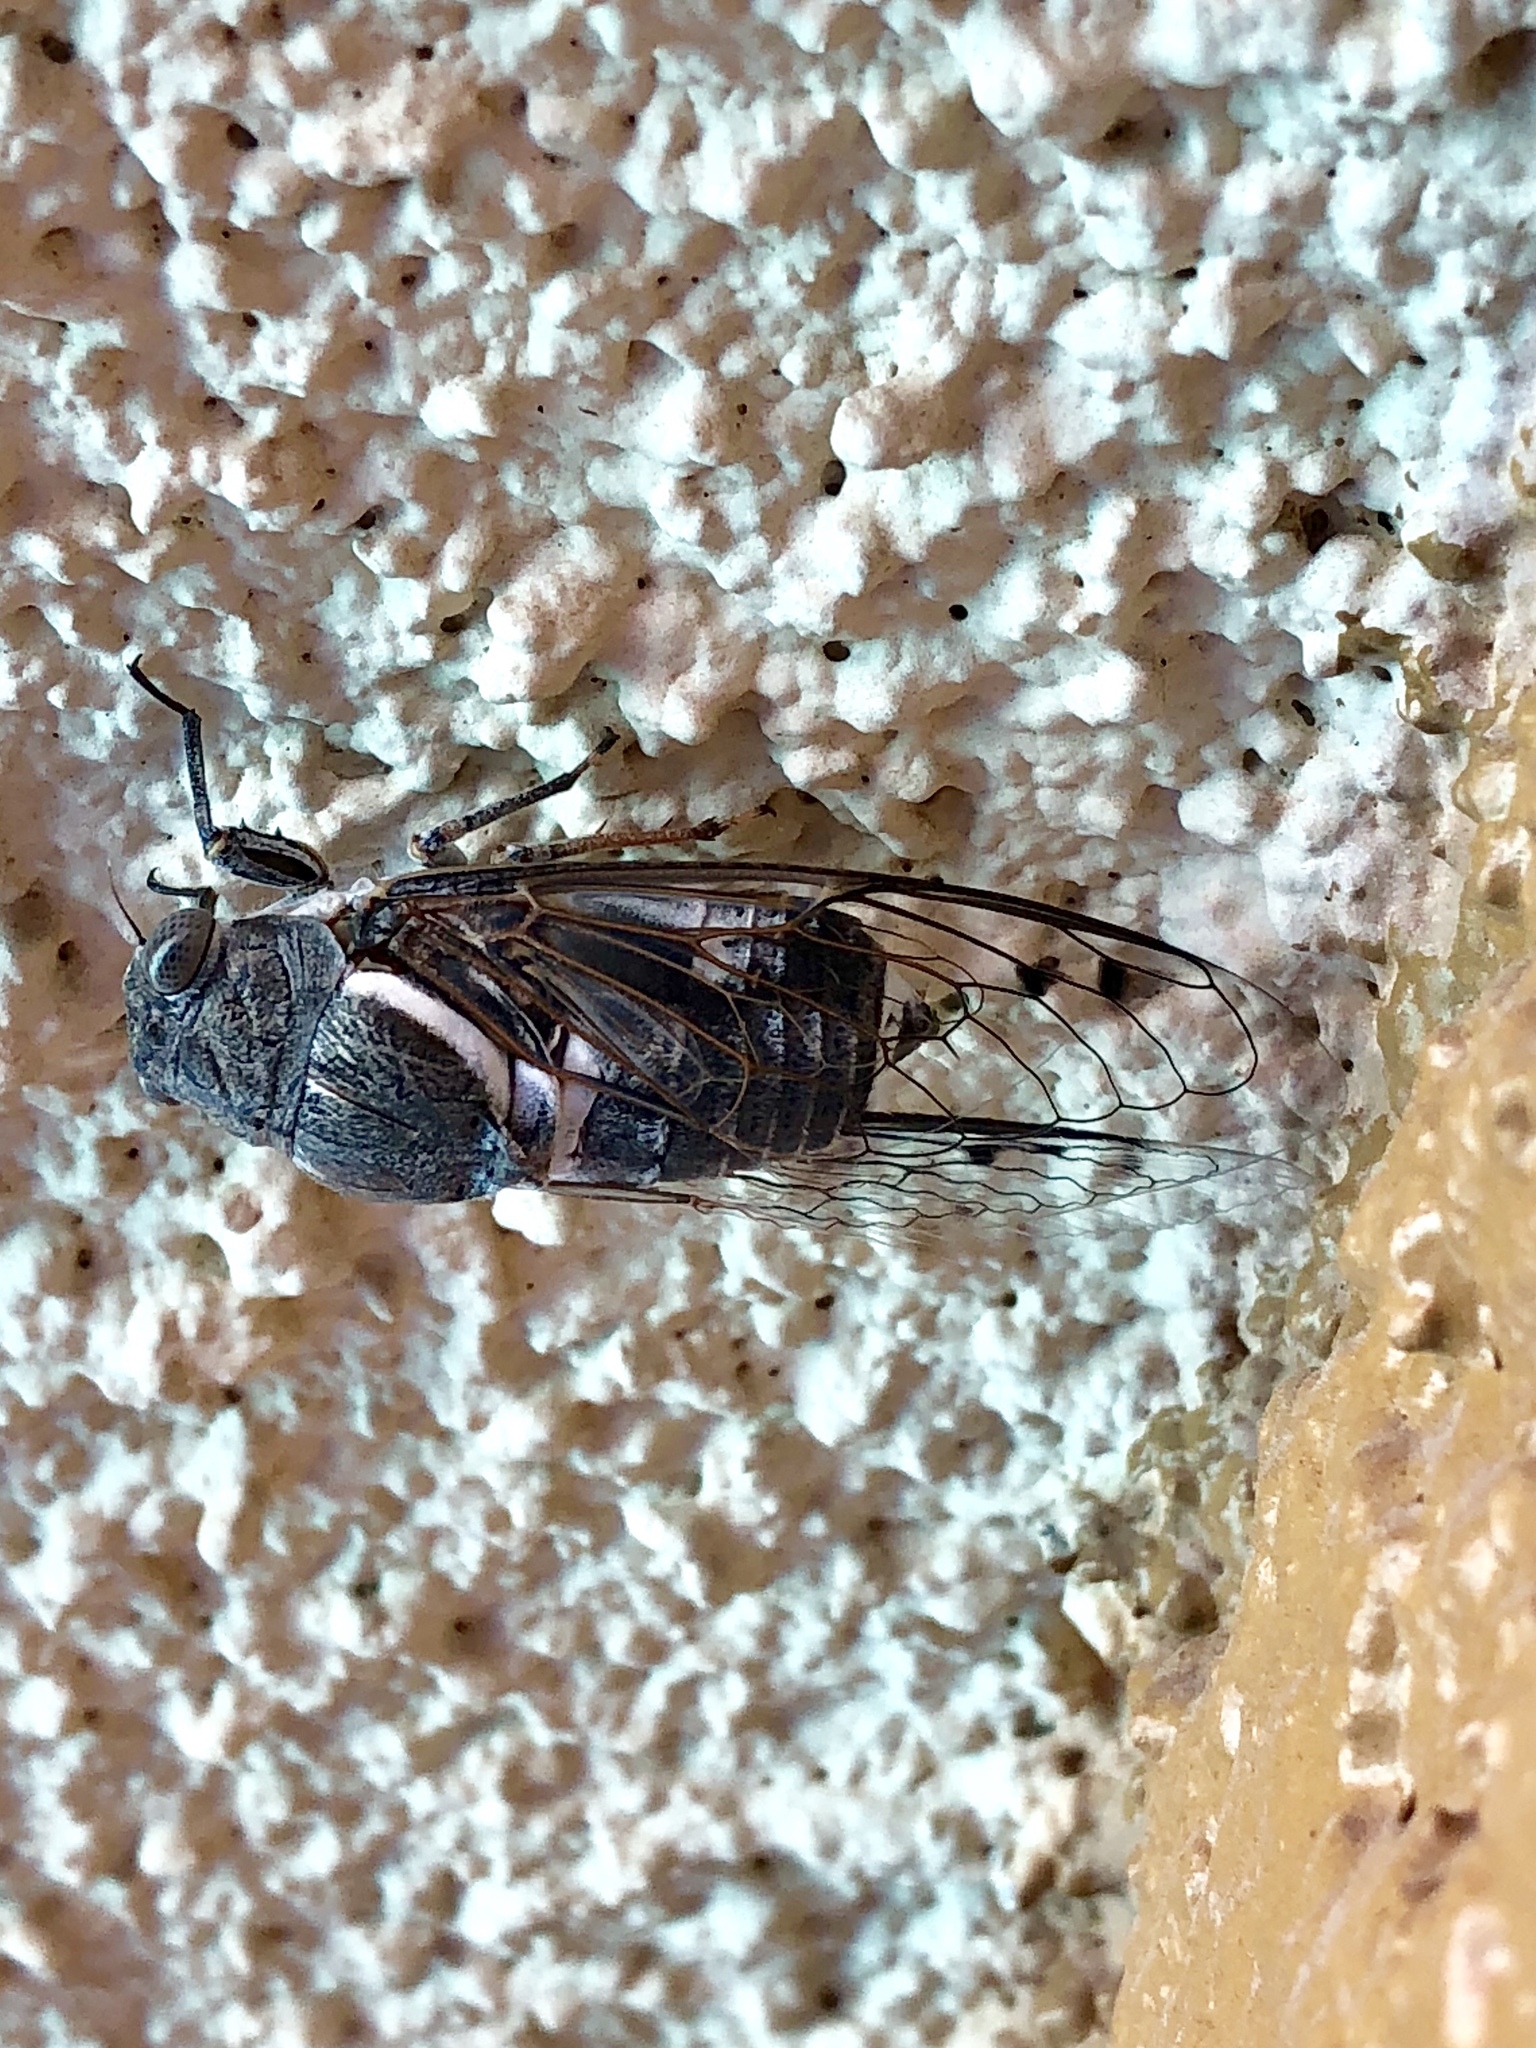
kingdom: Animalia
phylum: Arthropoda
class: Insecta
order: Hemiptera
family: Cicadidae
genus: Cacama
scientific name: Cacama valvata
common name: Cactus dodger
